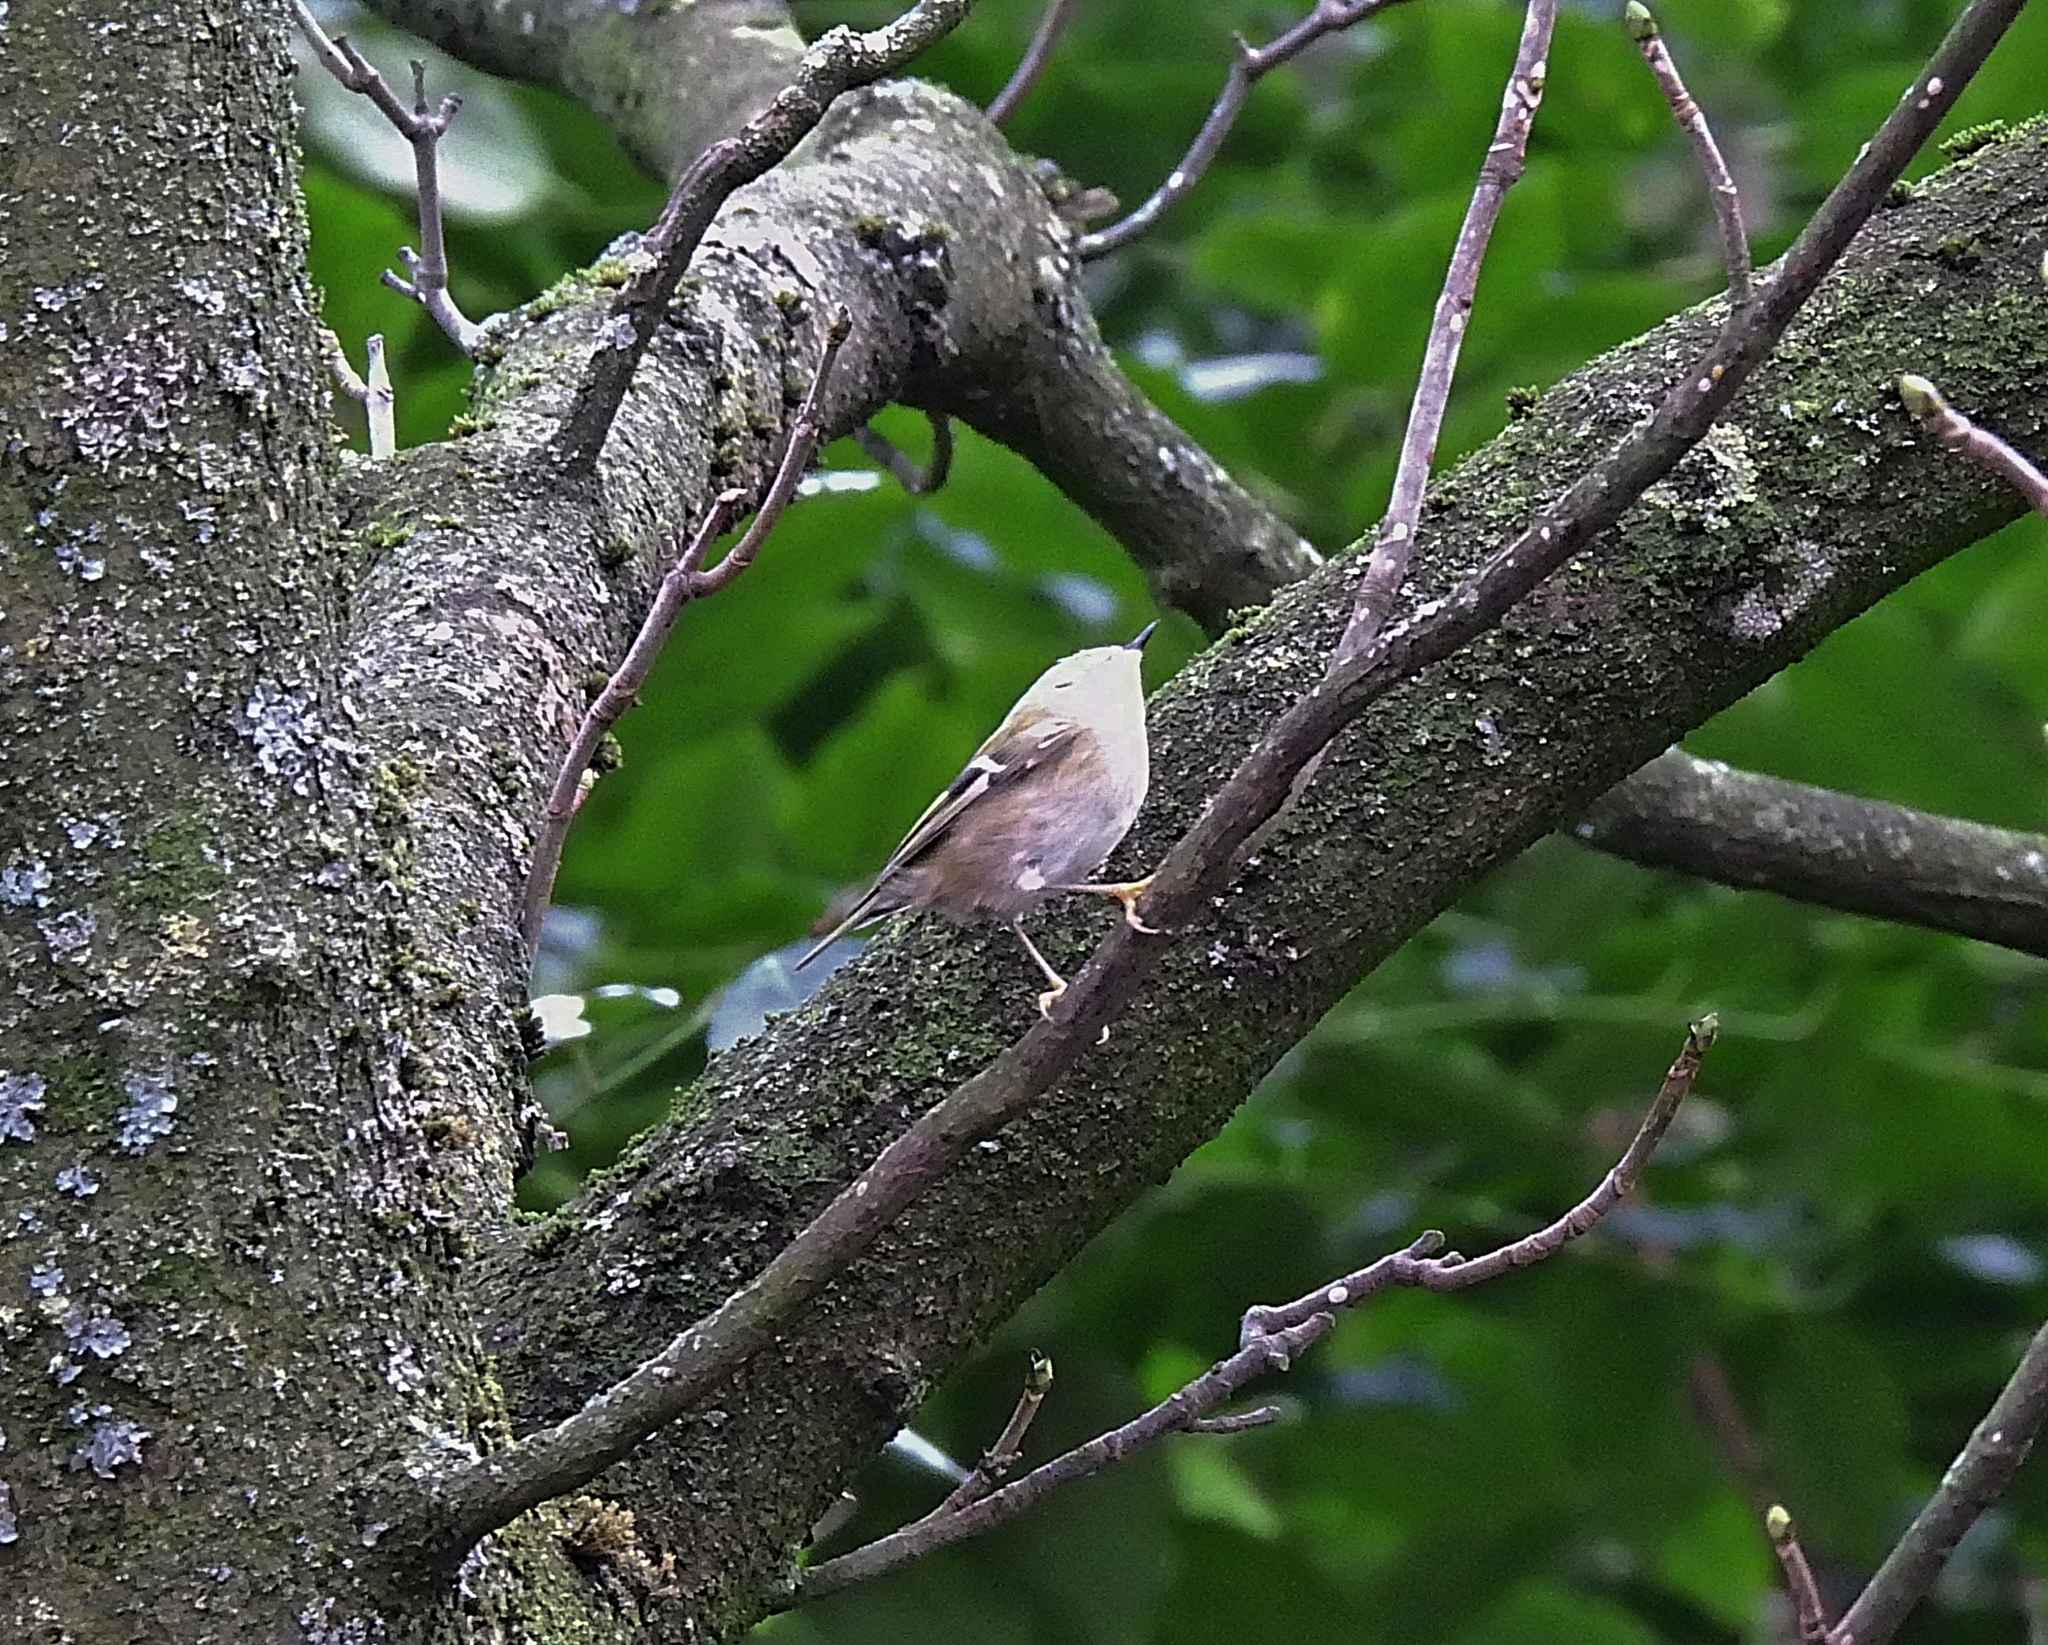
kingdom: Animalia
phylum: Chordata
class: Aves
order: Passeriformes
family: Regulidae
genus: Regulus
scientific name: Regulus regulus
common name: Goldcrest
